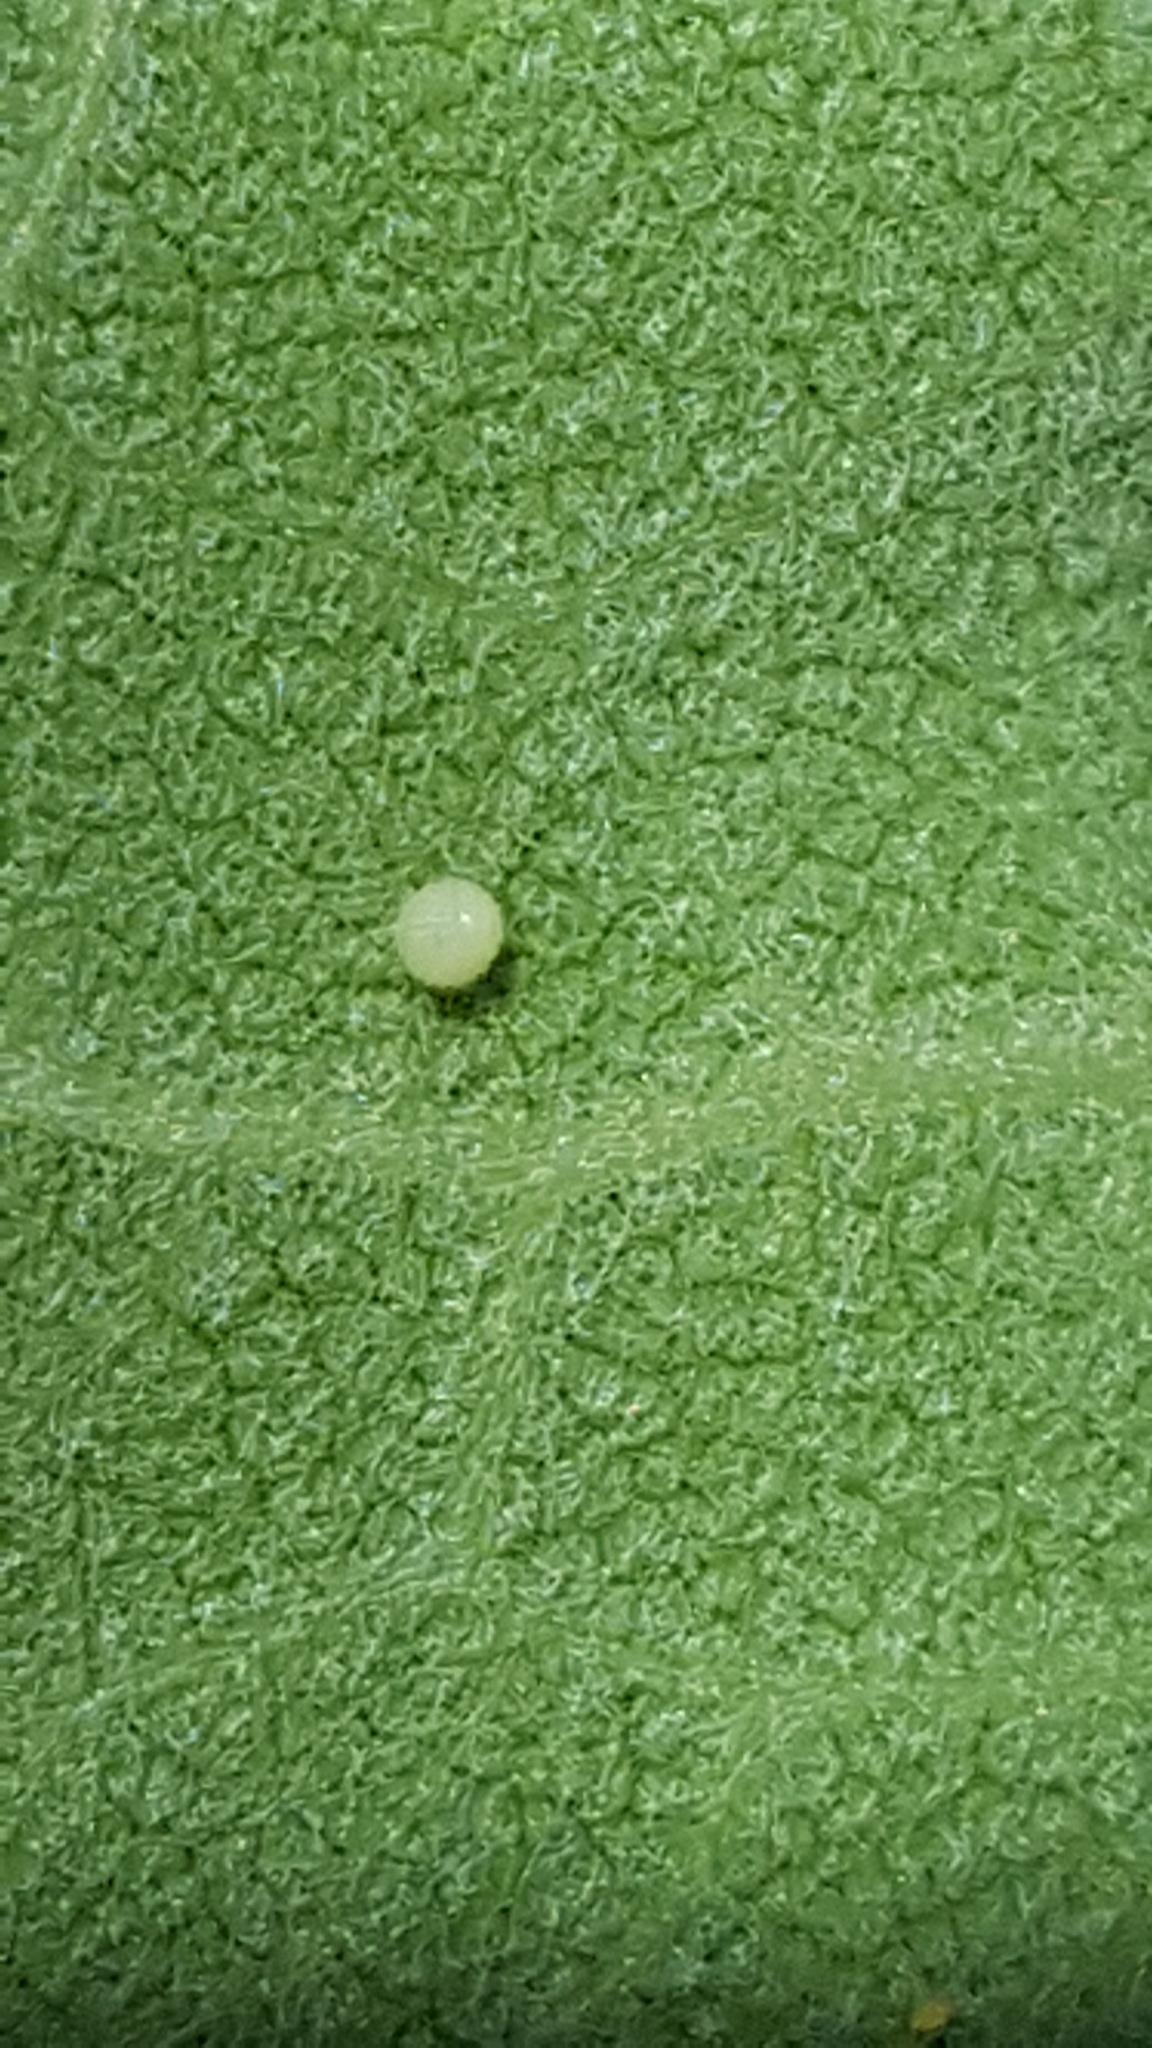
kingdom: Animalia
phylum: Arthropoda
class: Insecta
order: Lepidoptera
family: Nymphalidae
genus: Danaus
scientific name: Danaus plexippus
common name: Monarch
